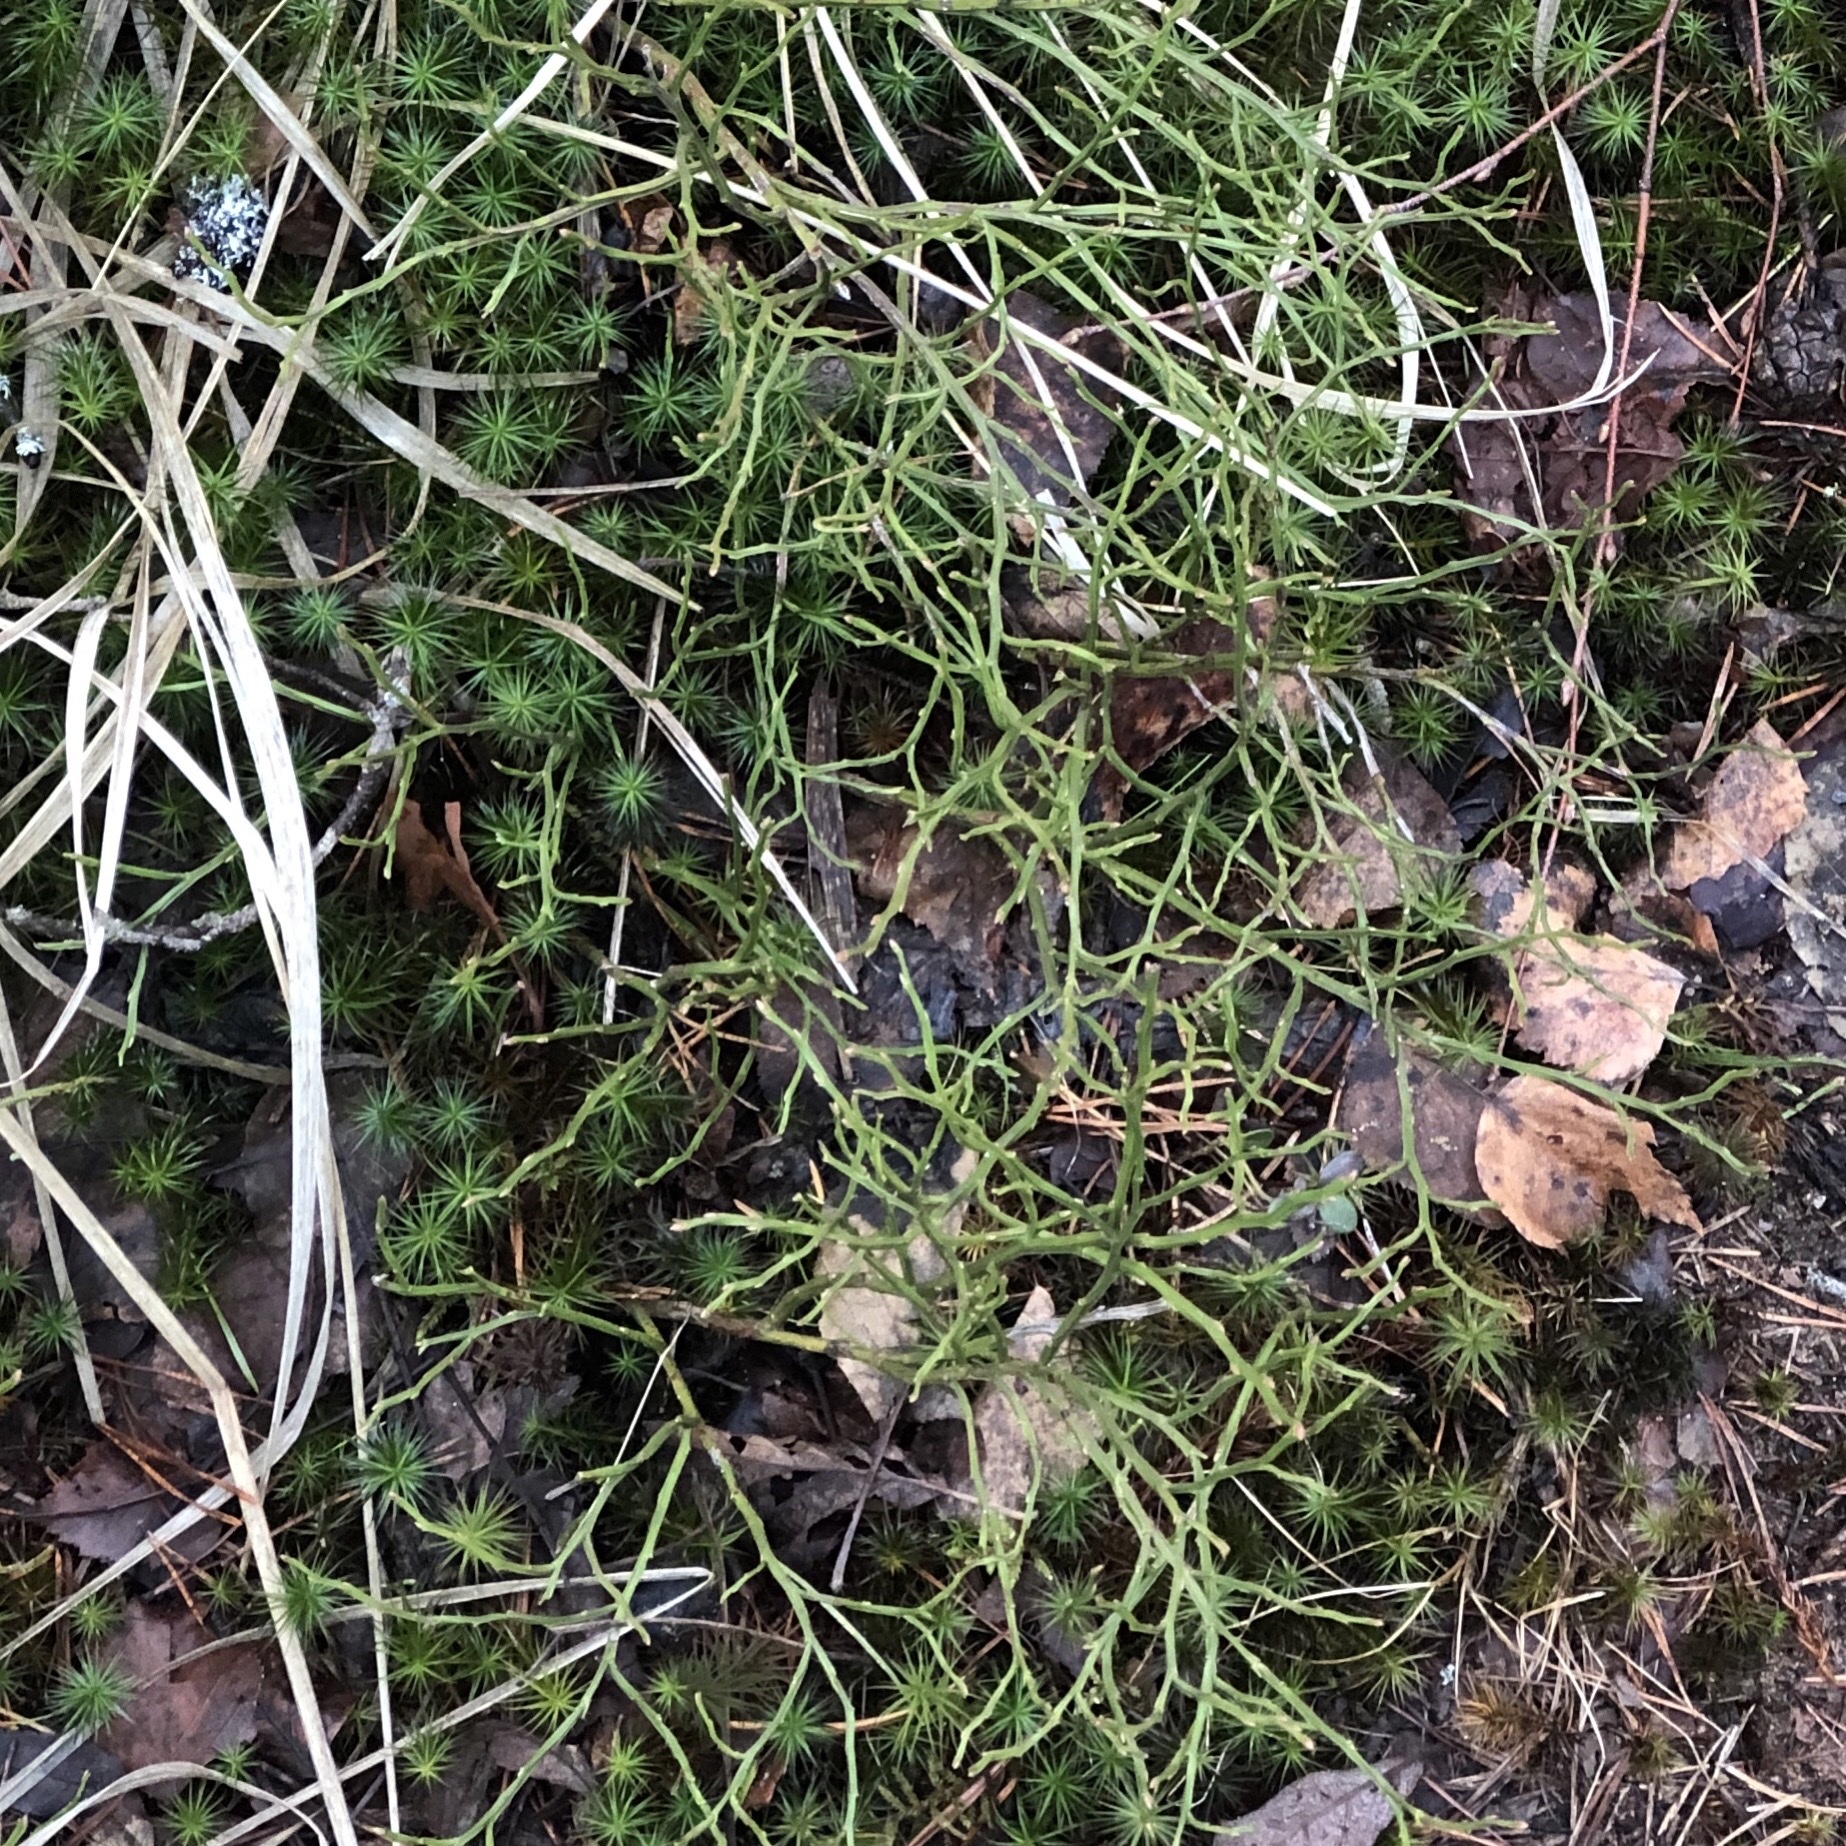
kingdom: Plantae
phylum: Tracheophyta
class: Magnoliopsida
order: Ericales
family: Ericaceae
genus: Vaccinium
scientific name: Vaccinium myrtillus
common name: Bilberry
